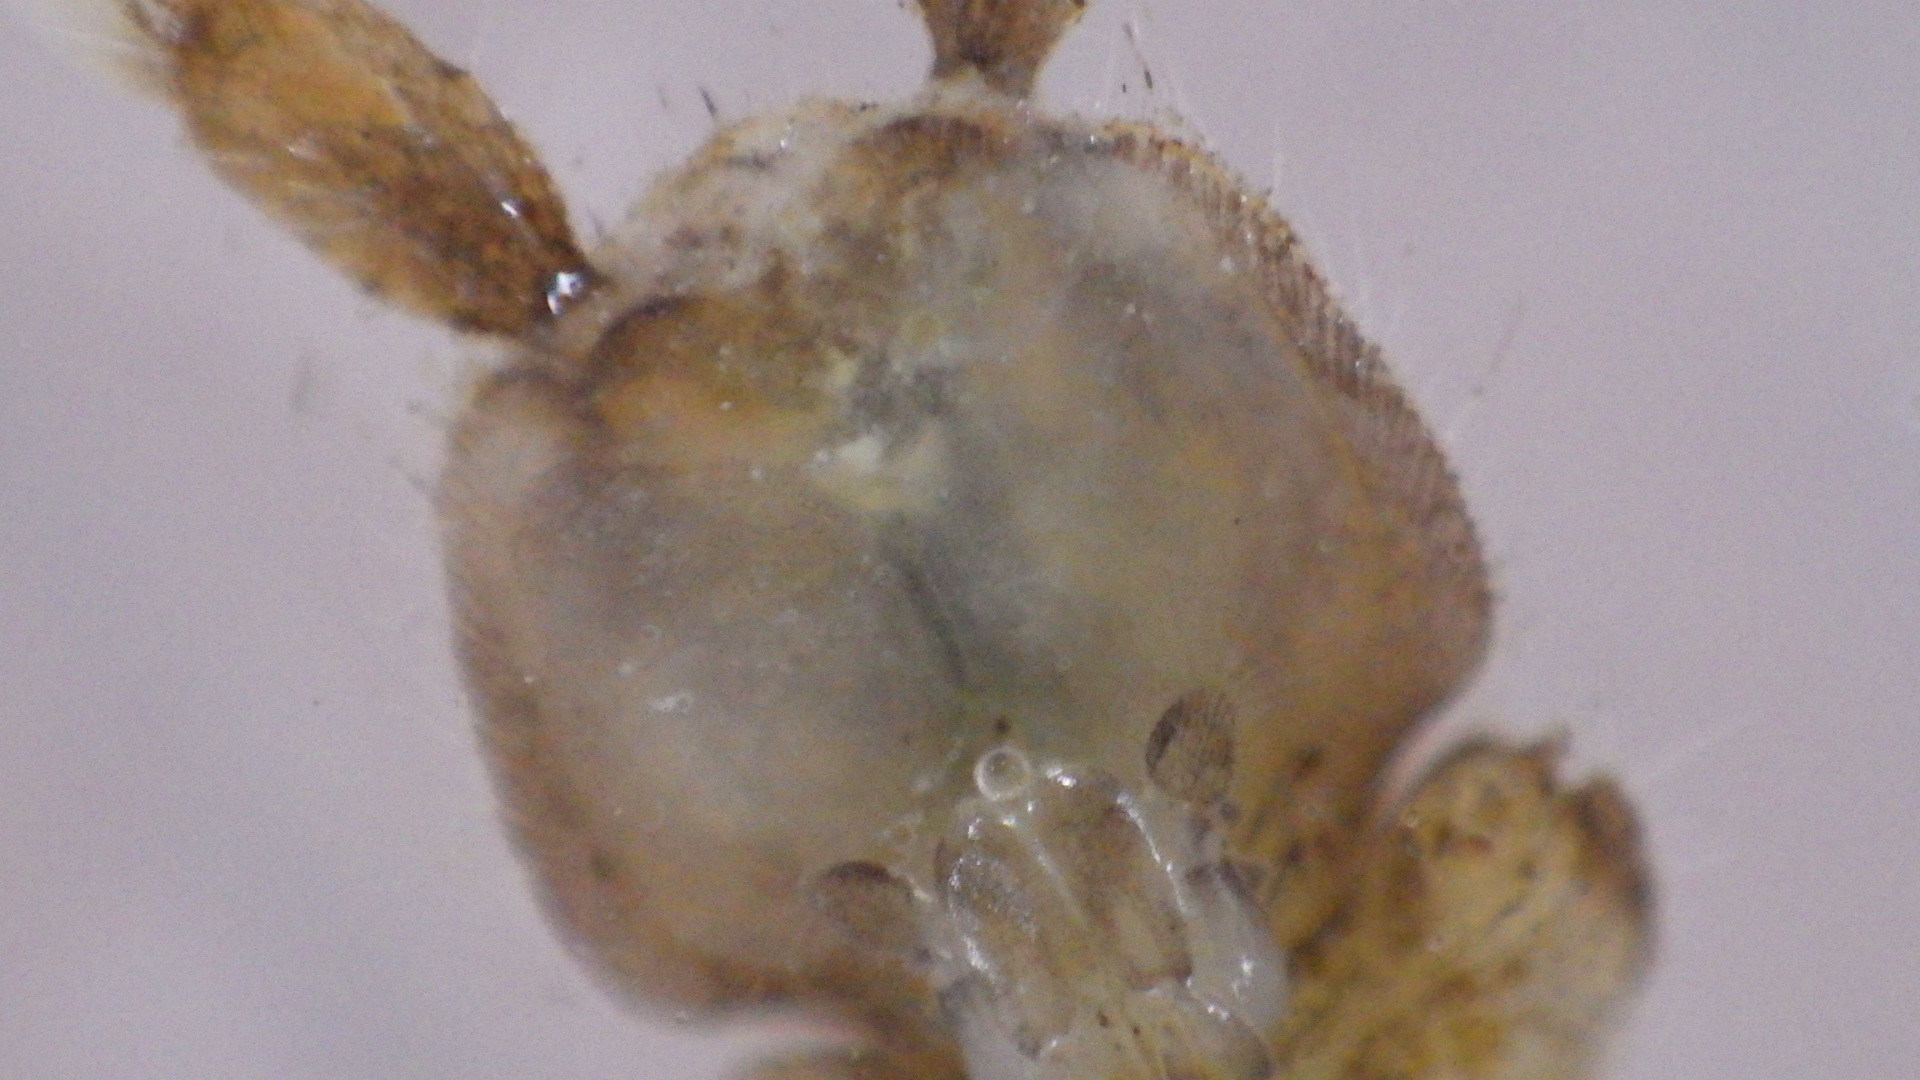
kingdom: Animalia
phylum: Arthropoda
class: Malacostraca
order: Isopoda
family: Asellidae
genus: Caecidotea
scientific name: Caecidotea communis
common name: Eastern waterslater
